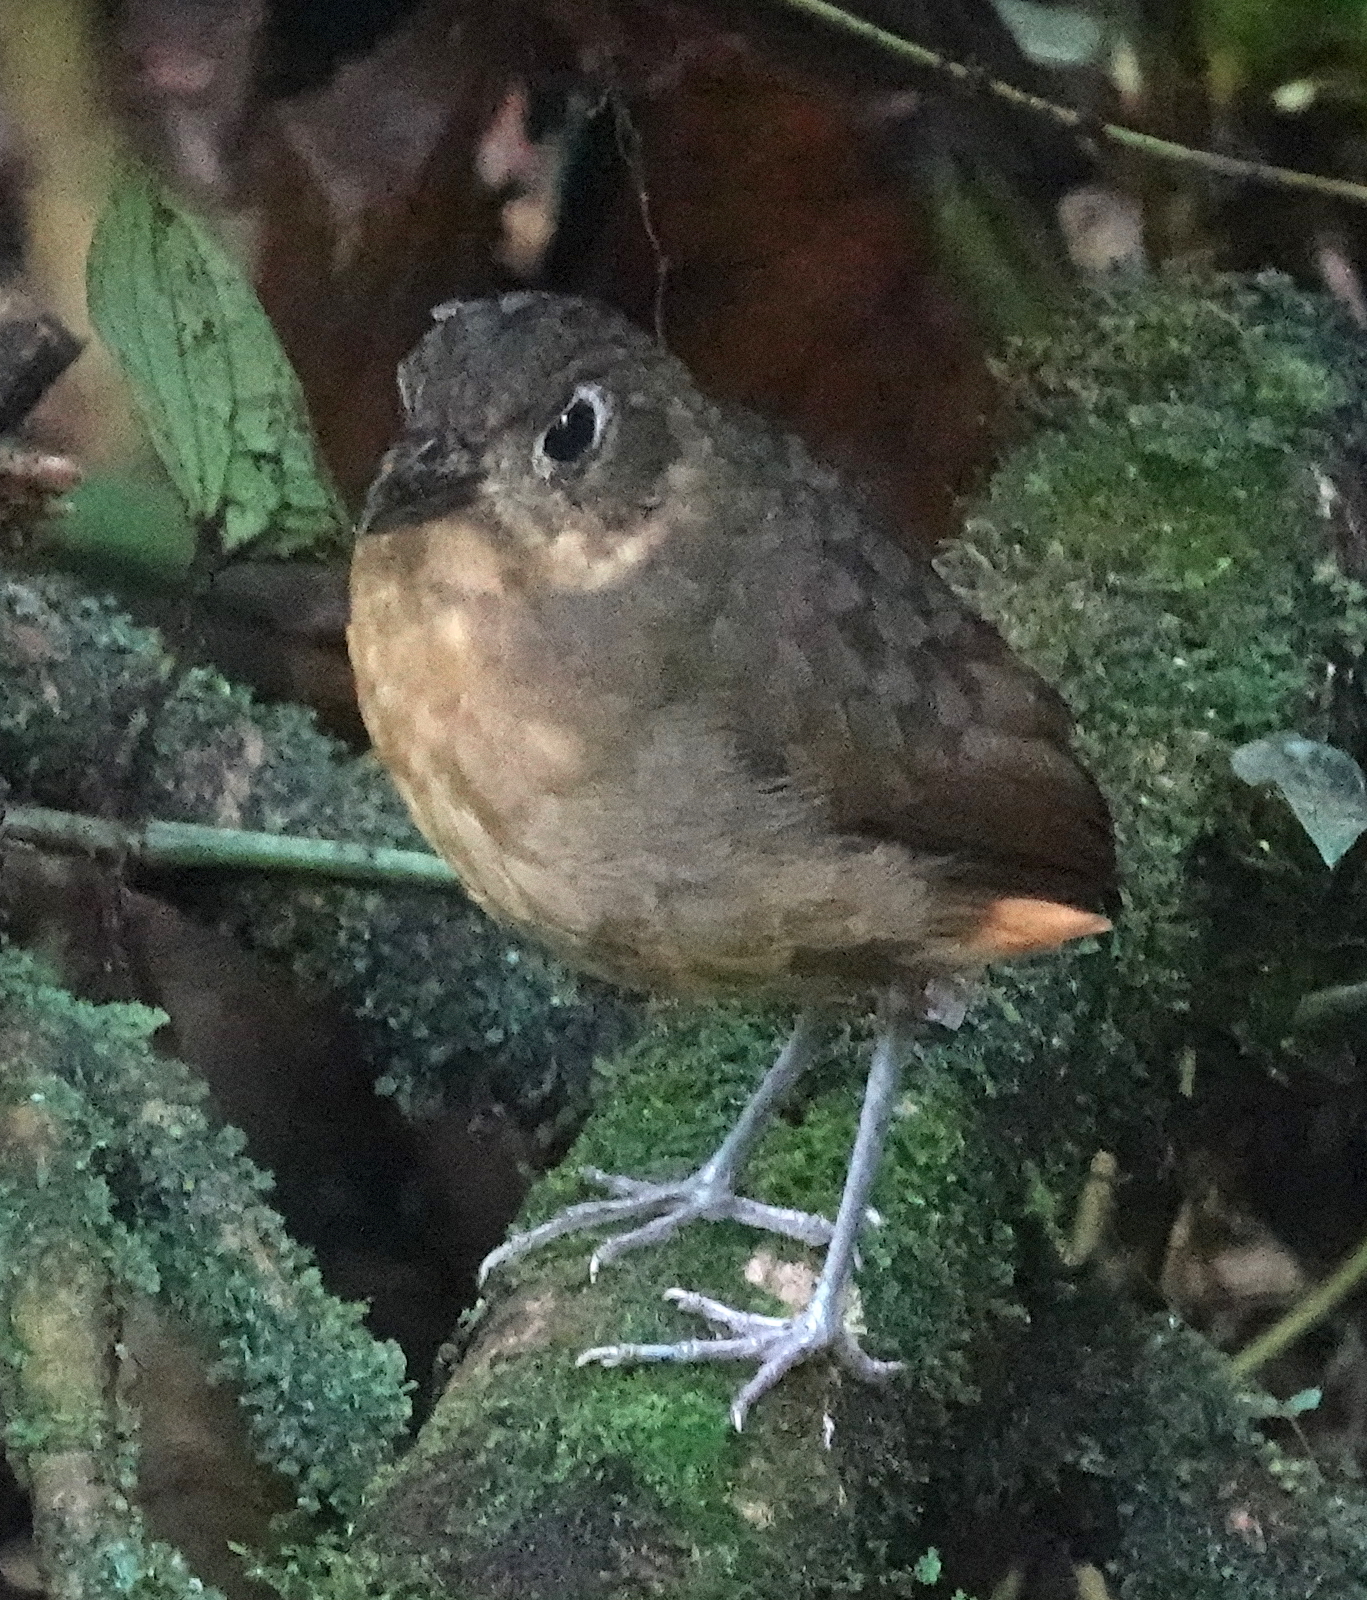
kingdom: Animalia
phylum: Chordata
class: Aves
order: Passeriformes
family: Grallariidae
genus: Grallaria
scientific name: Grallaria haplonota
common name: Plain-backed antpitta
